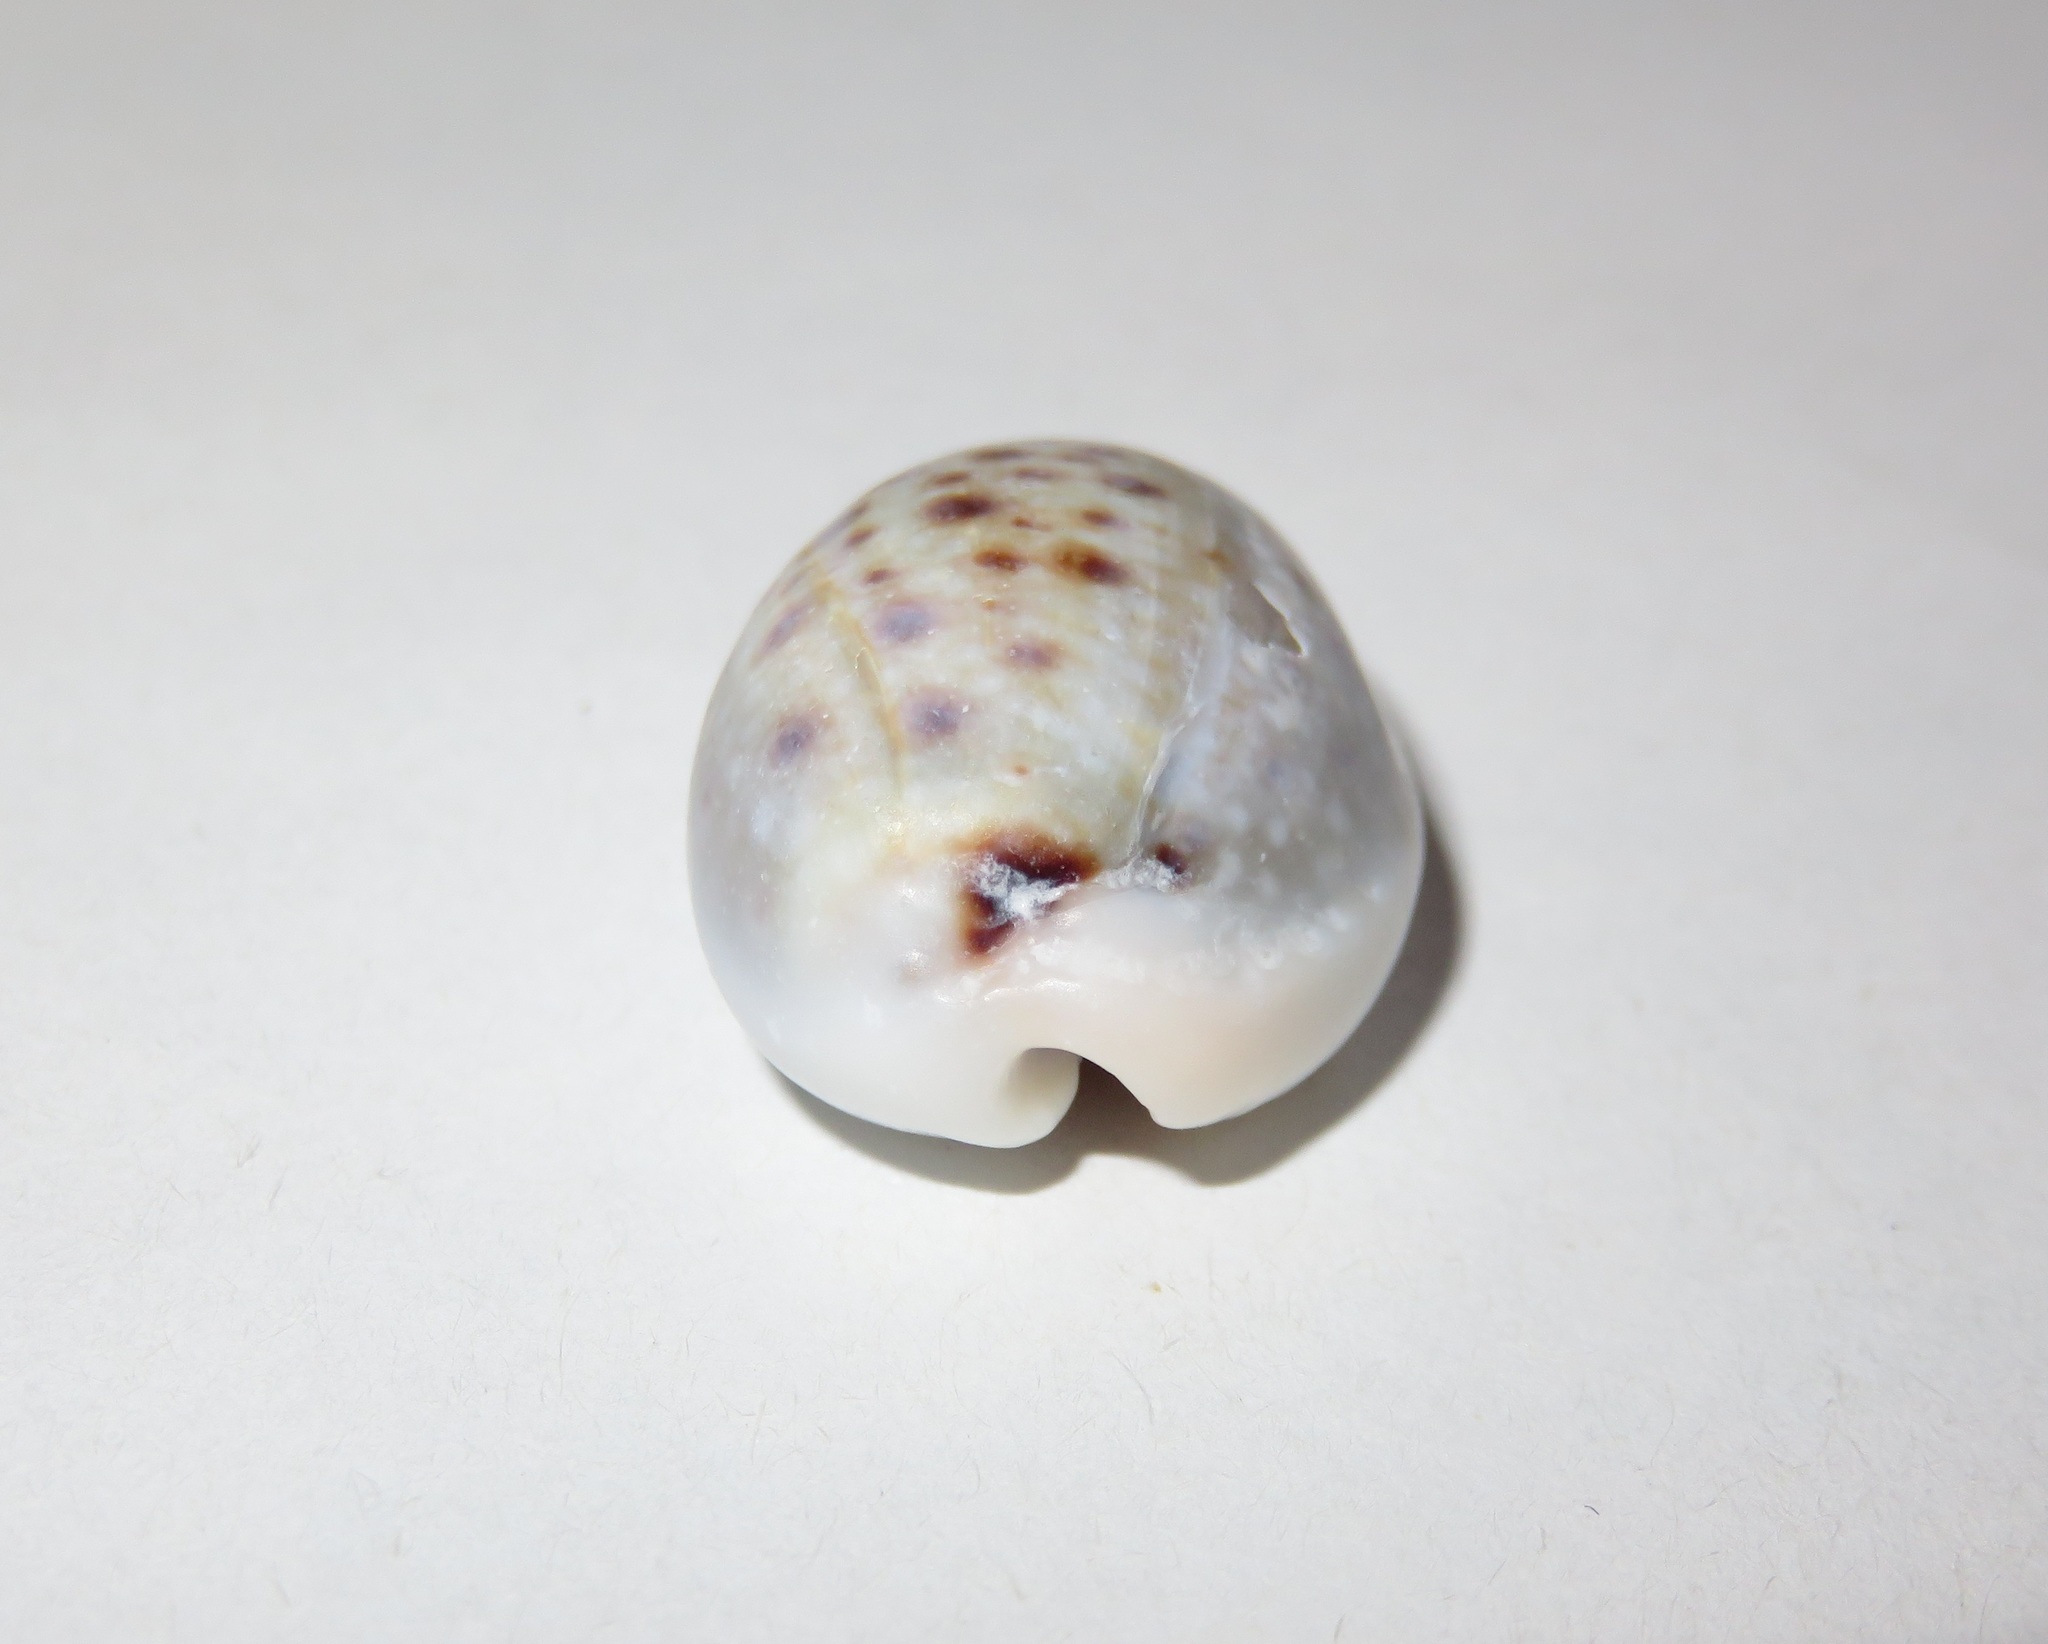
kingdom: Animalia
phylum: Mollusca
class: Gastropoda
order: Littorinimorpha
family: Cypraeidae
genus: Naria
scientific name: Naria boivinii
